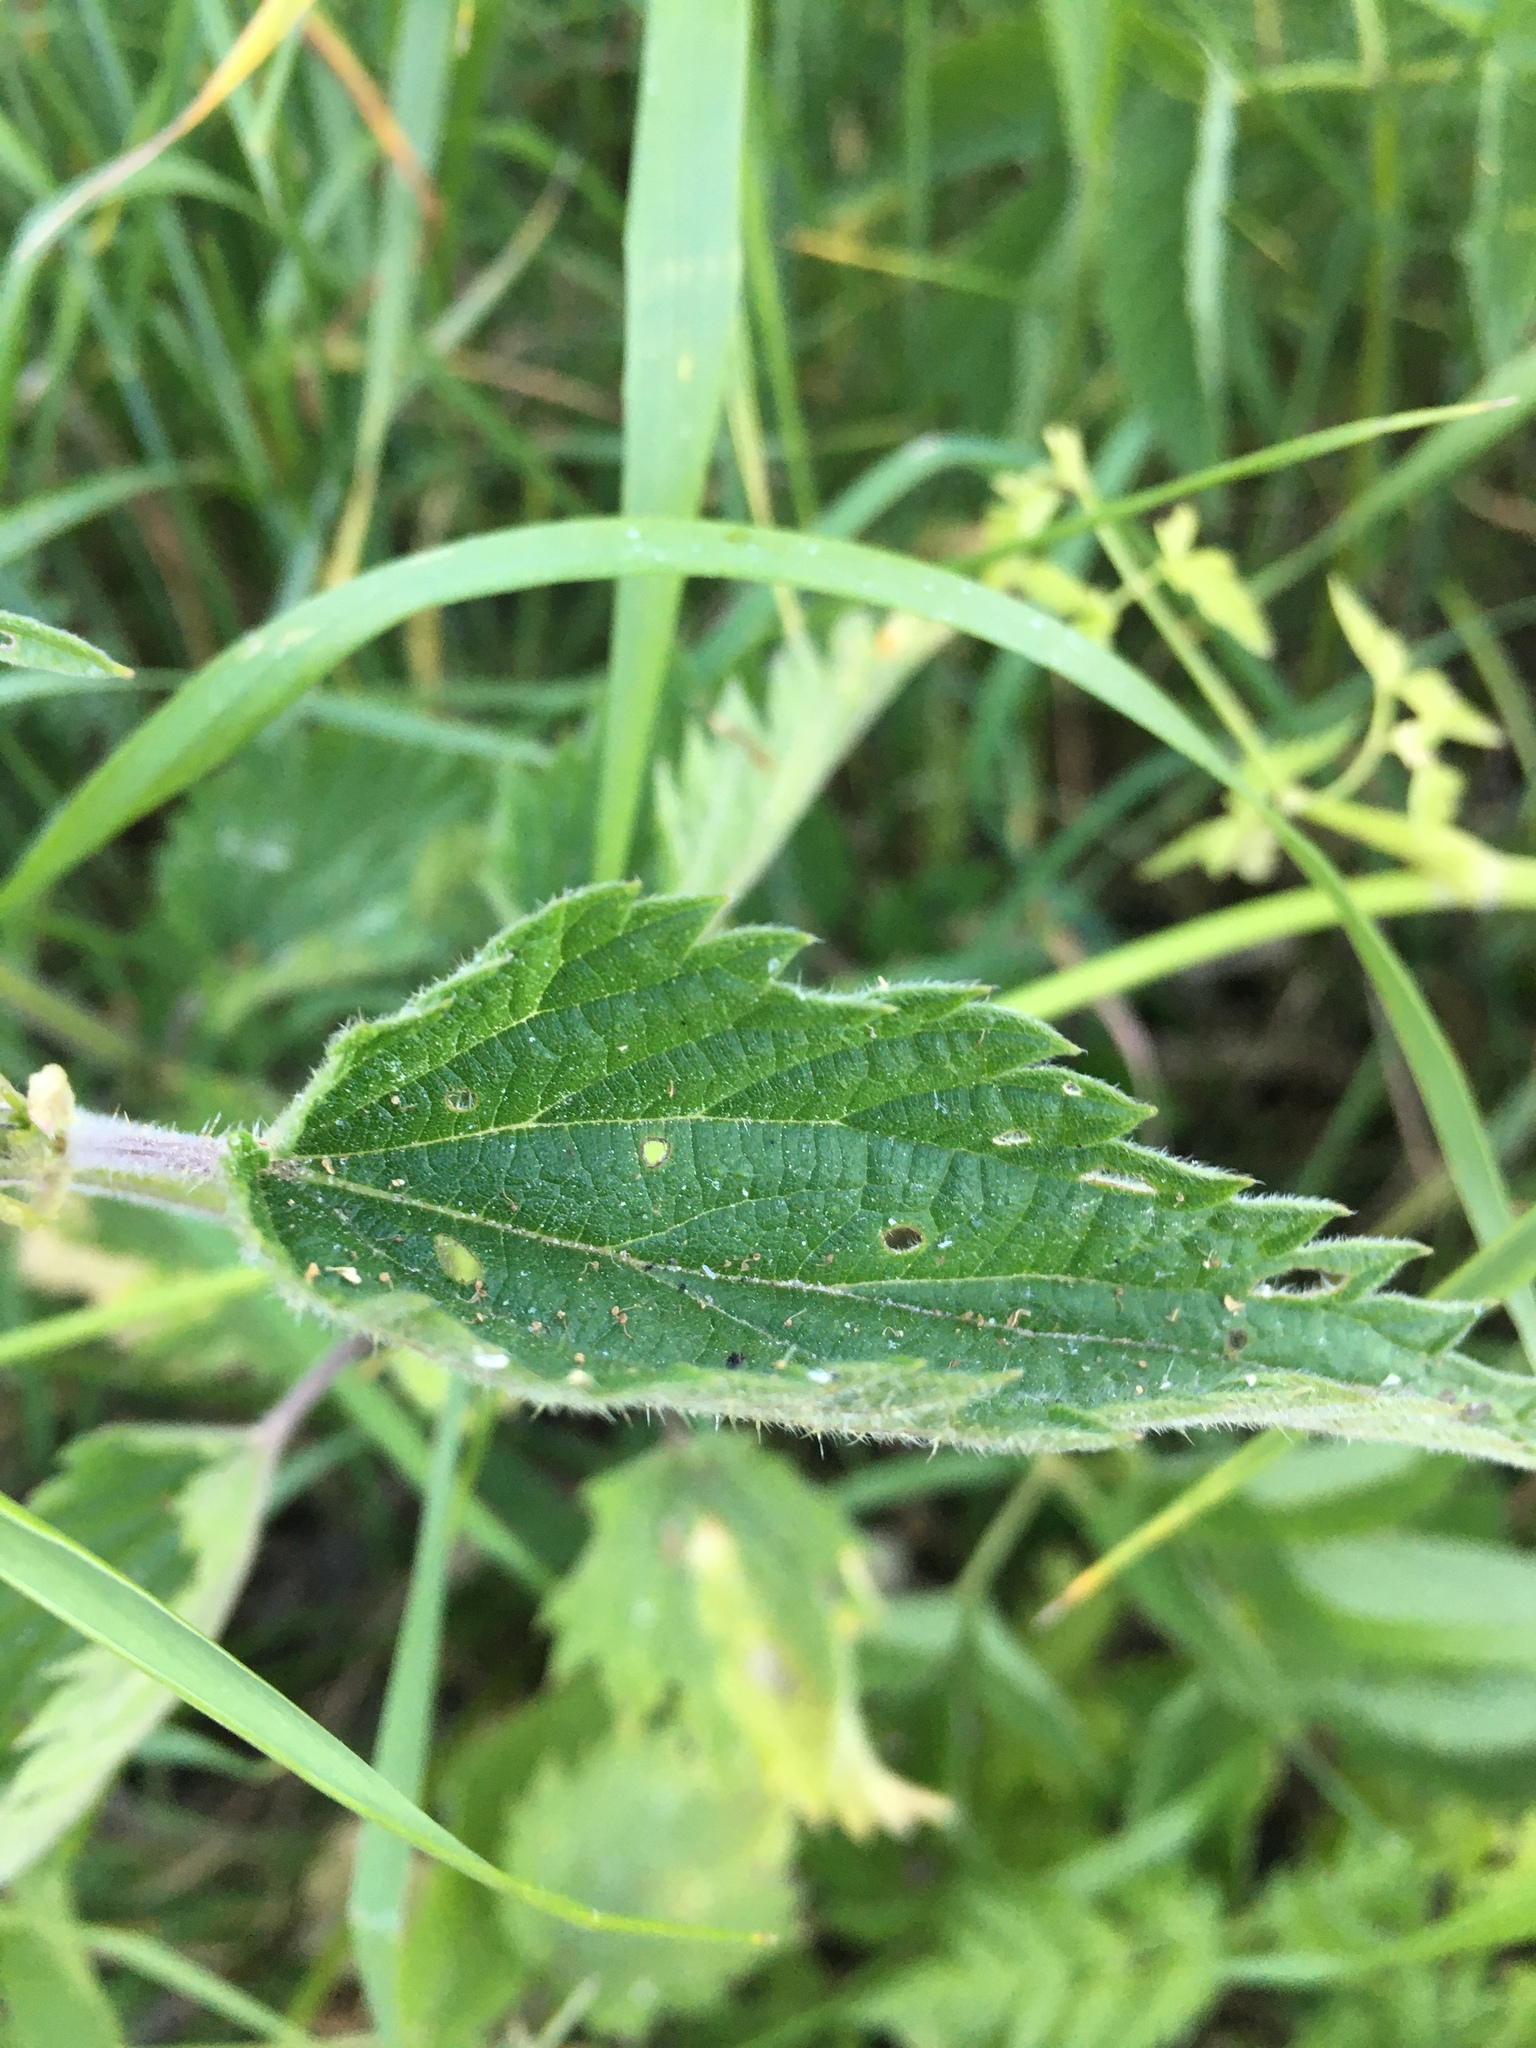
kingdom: Plantae
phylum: Tracheophyta
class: Magnoliopsida
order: Rosales
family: Urticaceae
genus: Urtica
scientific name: Urtica dioica
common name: Common nettle
